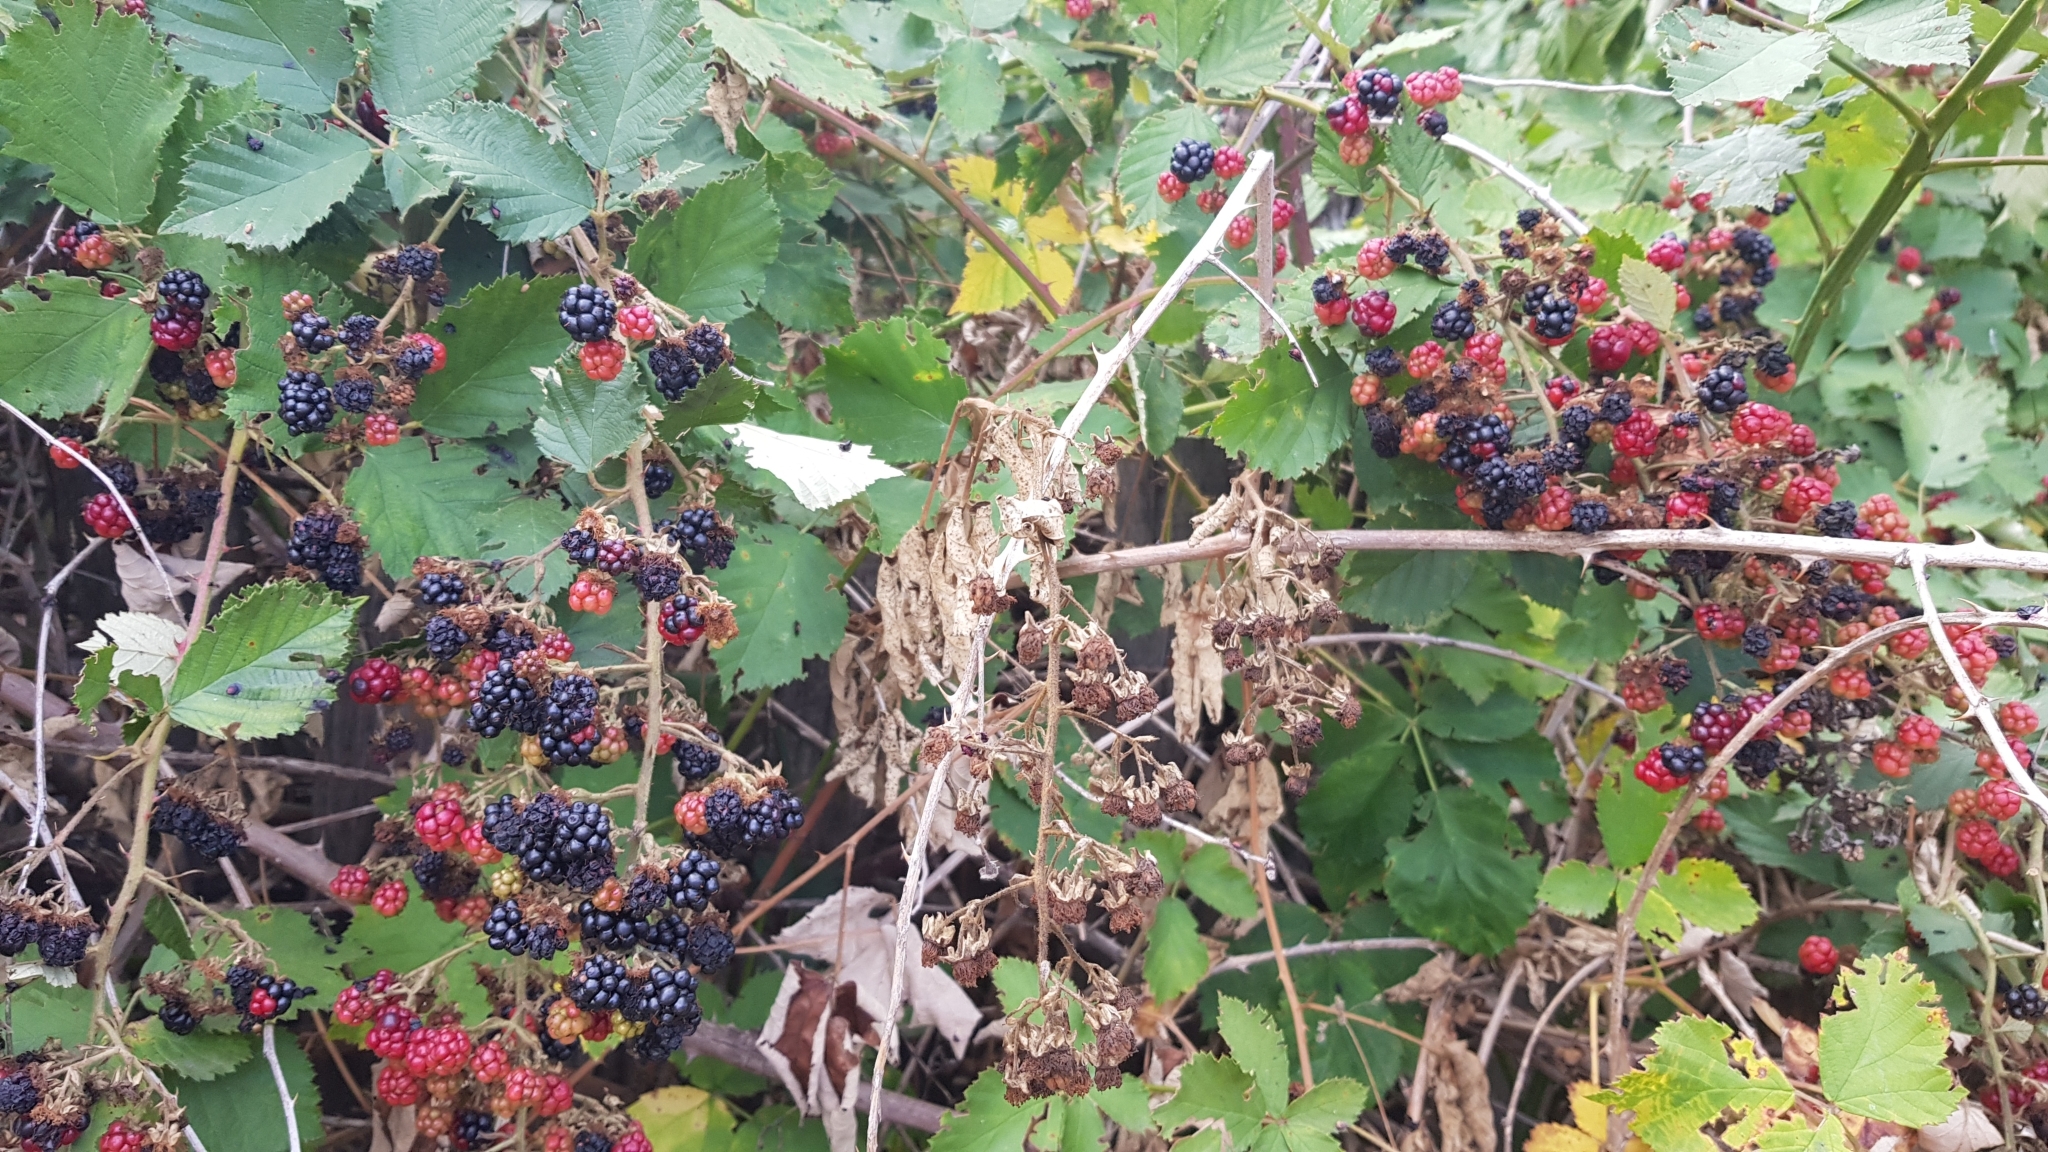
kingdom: Plantae
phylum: Tracheophyta
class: Magnoliopsida
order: Rosales
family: Rosaceae
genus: Rubus
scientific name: Rubus sanctus
